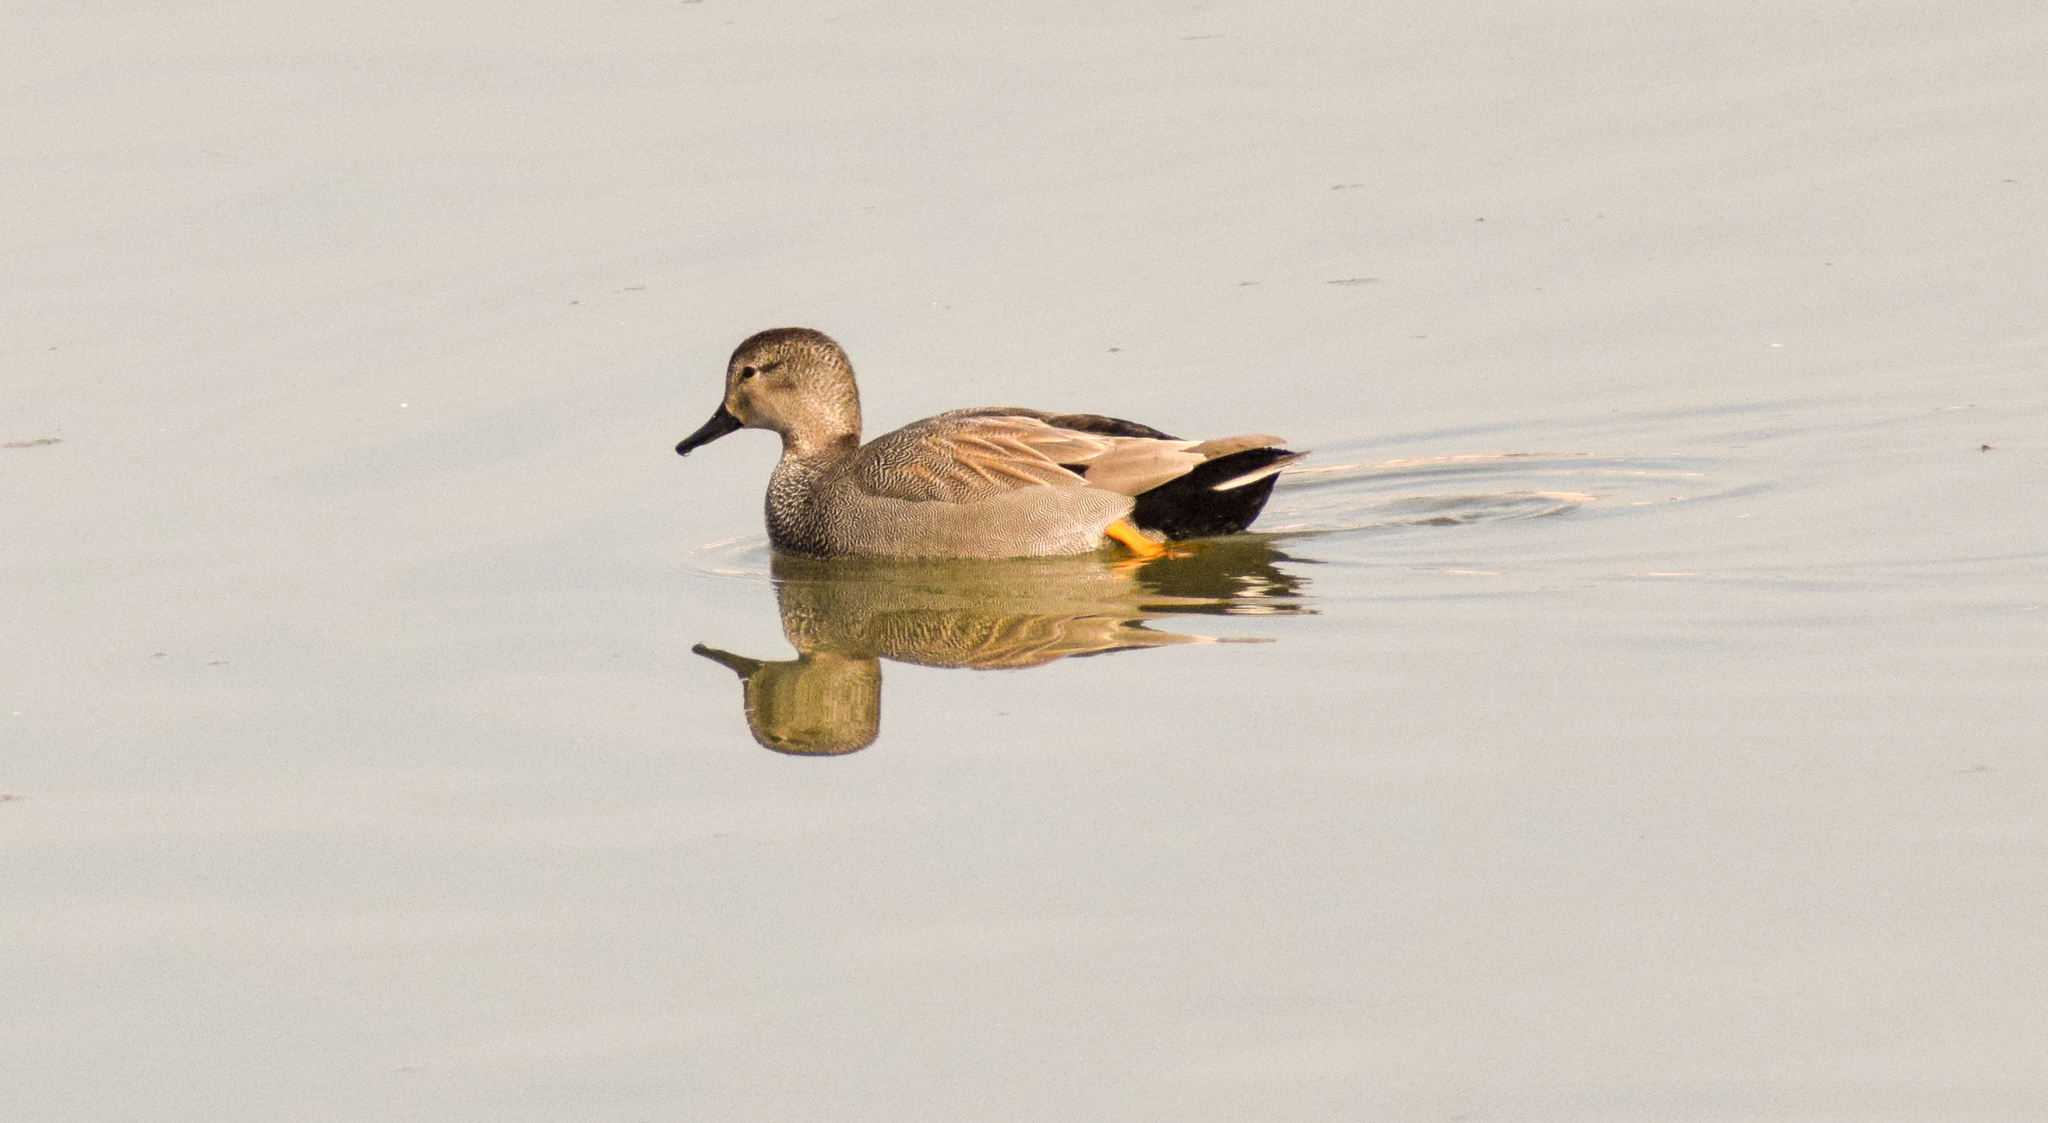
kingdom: Animalia
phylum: Chordata
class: Aves
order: Anseriformes
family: Anatidae
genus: Mareca
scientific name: Mareca strepera
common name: Gadwall
